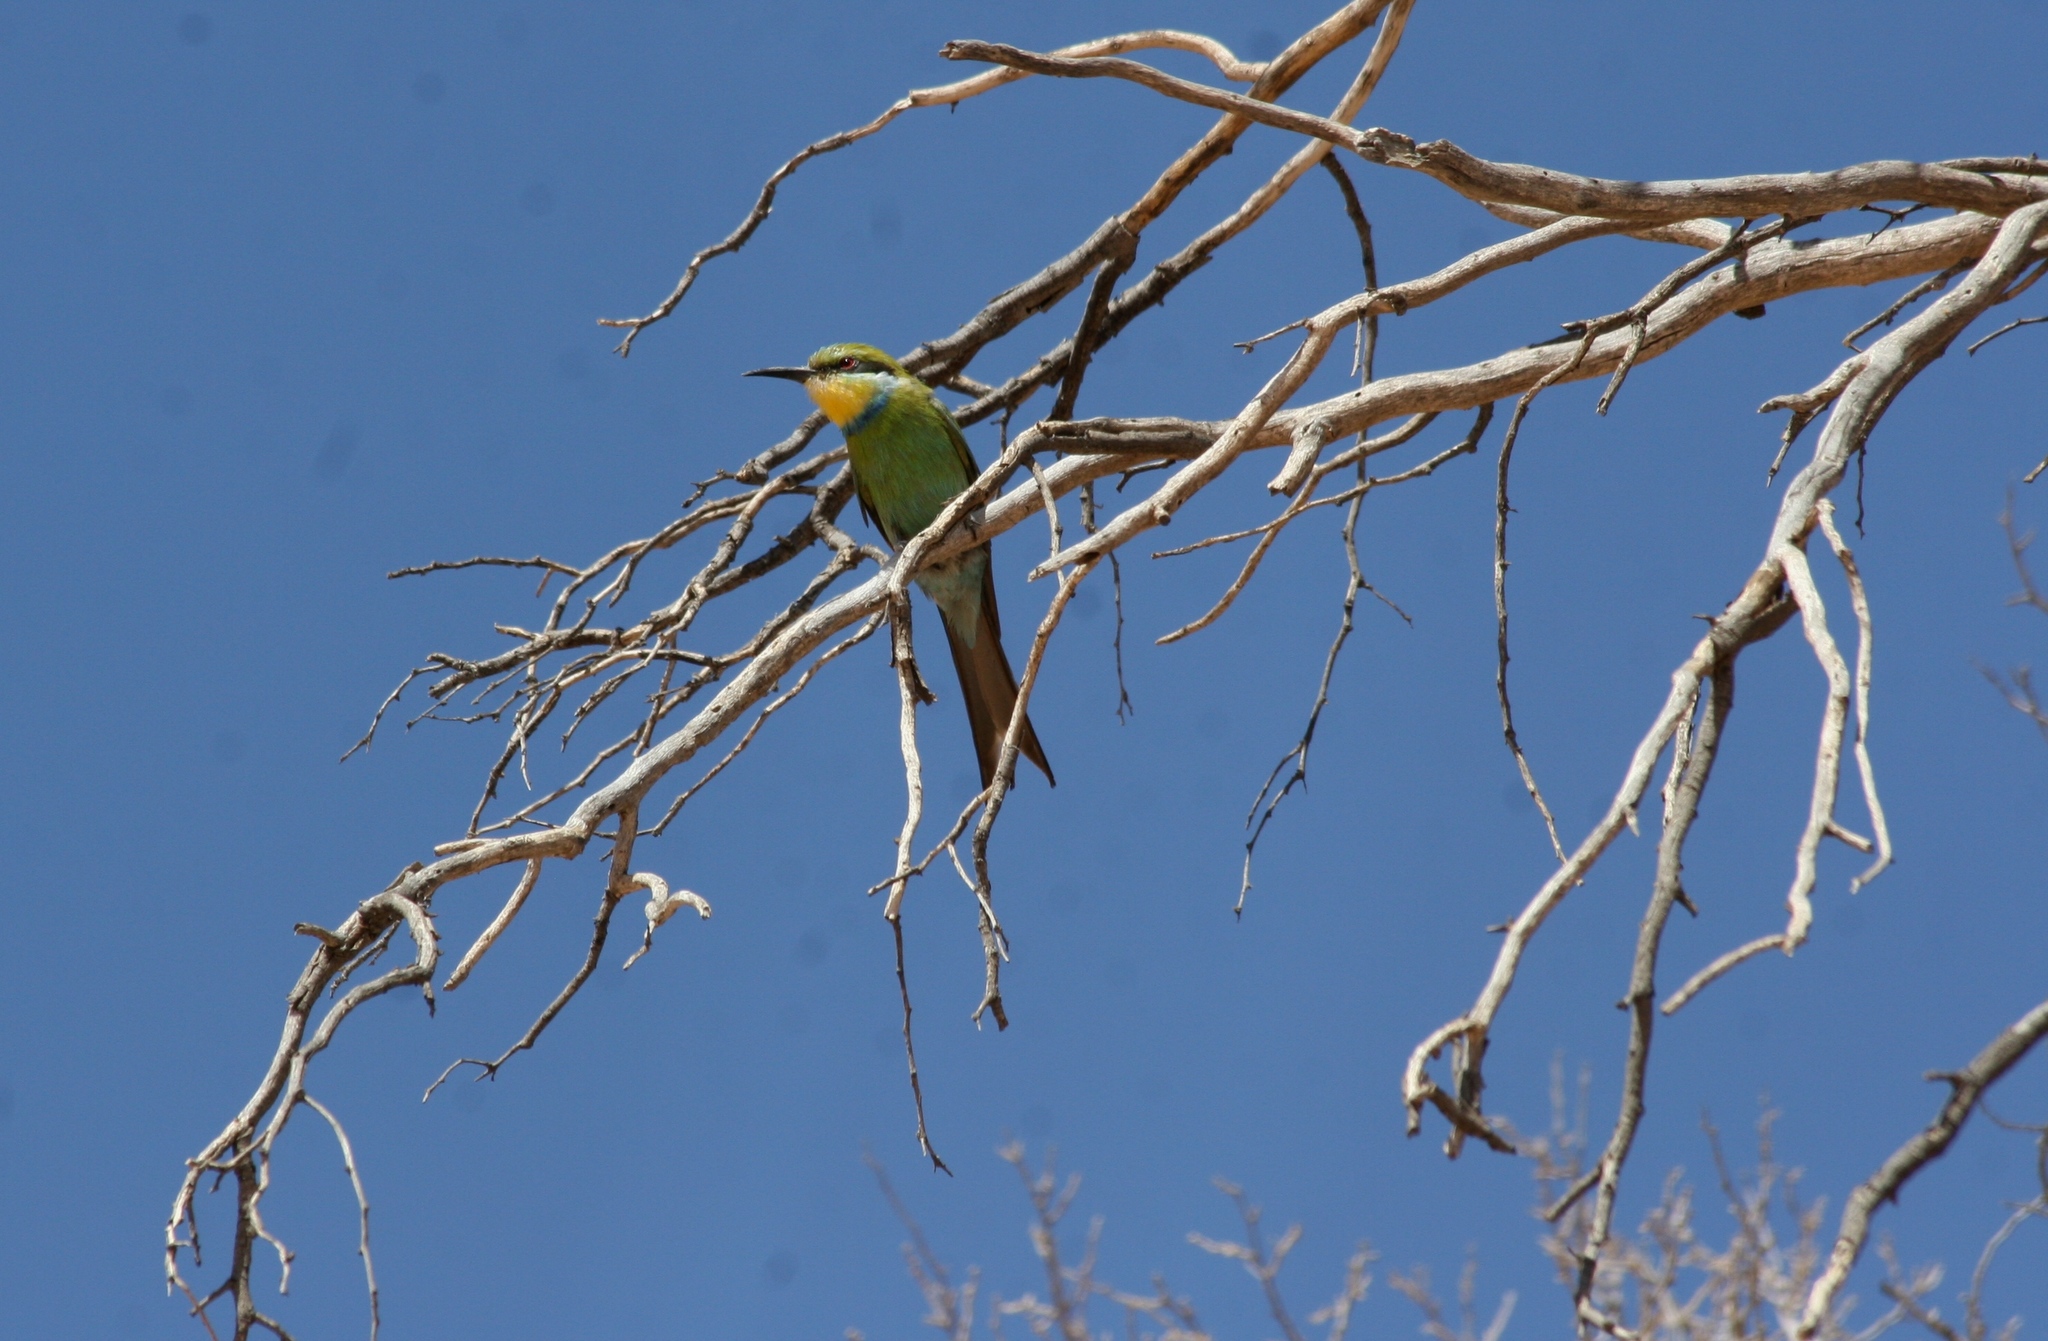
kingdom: Animalia
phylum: Chordata
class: Aves
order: Coraciiformes
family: Meropidae
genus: Merops
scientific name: Merops hirundineus
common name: Swallow-tailed bee-eater
